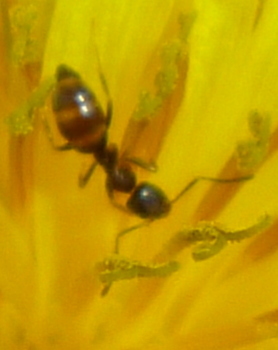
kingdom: Animalia
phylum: Arthropoda
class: Insecta
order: Hymenoptera
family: Formicidae
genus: Tapinoma
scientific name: Tapinoma sessile
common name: Odorous house ant
